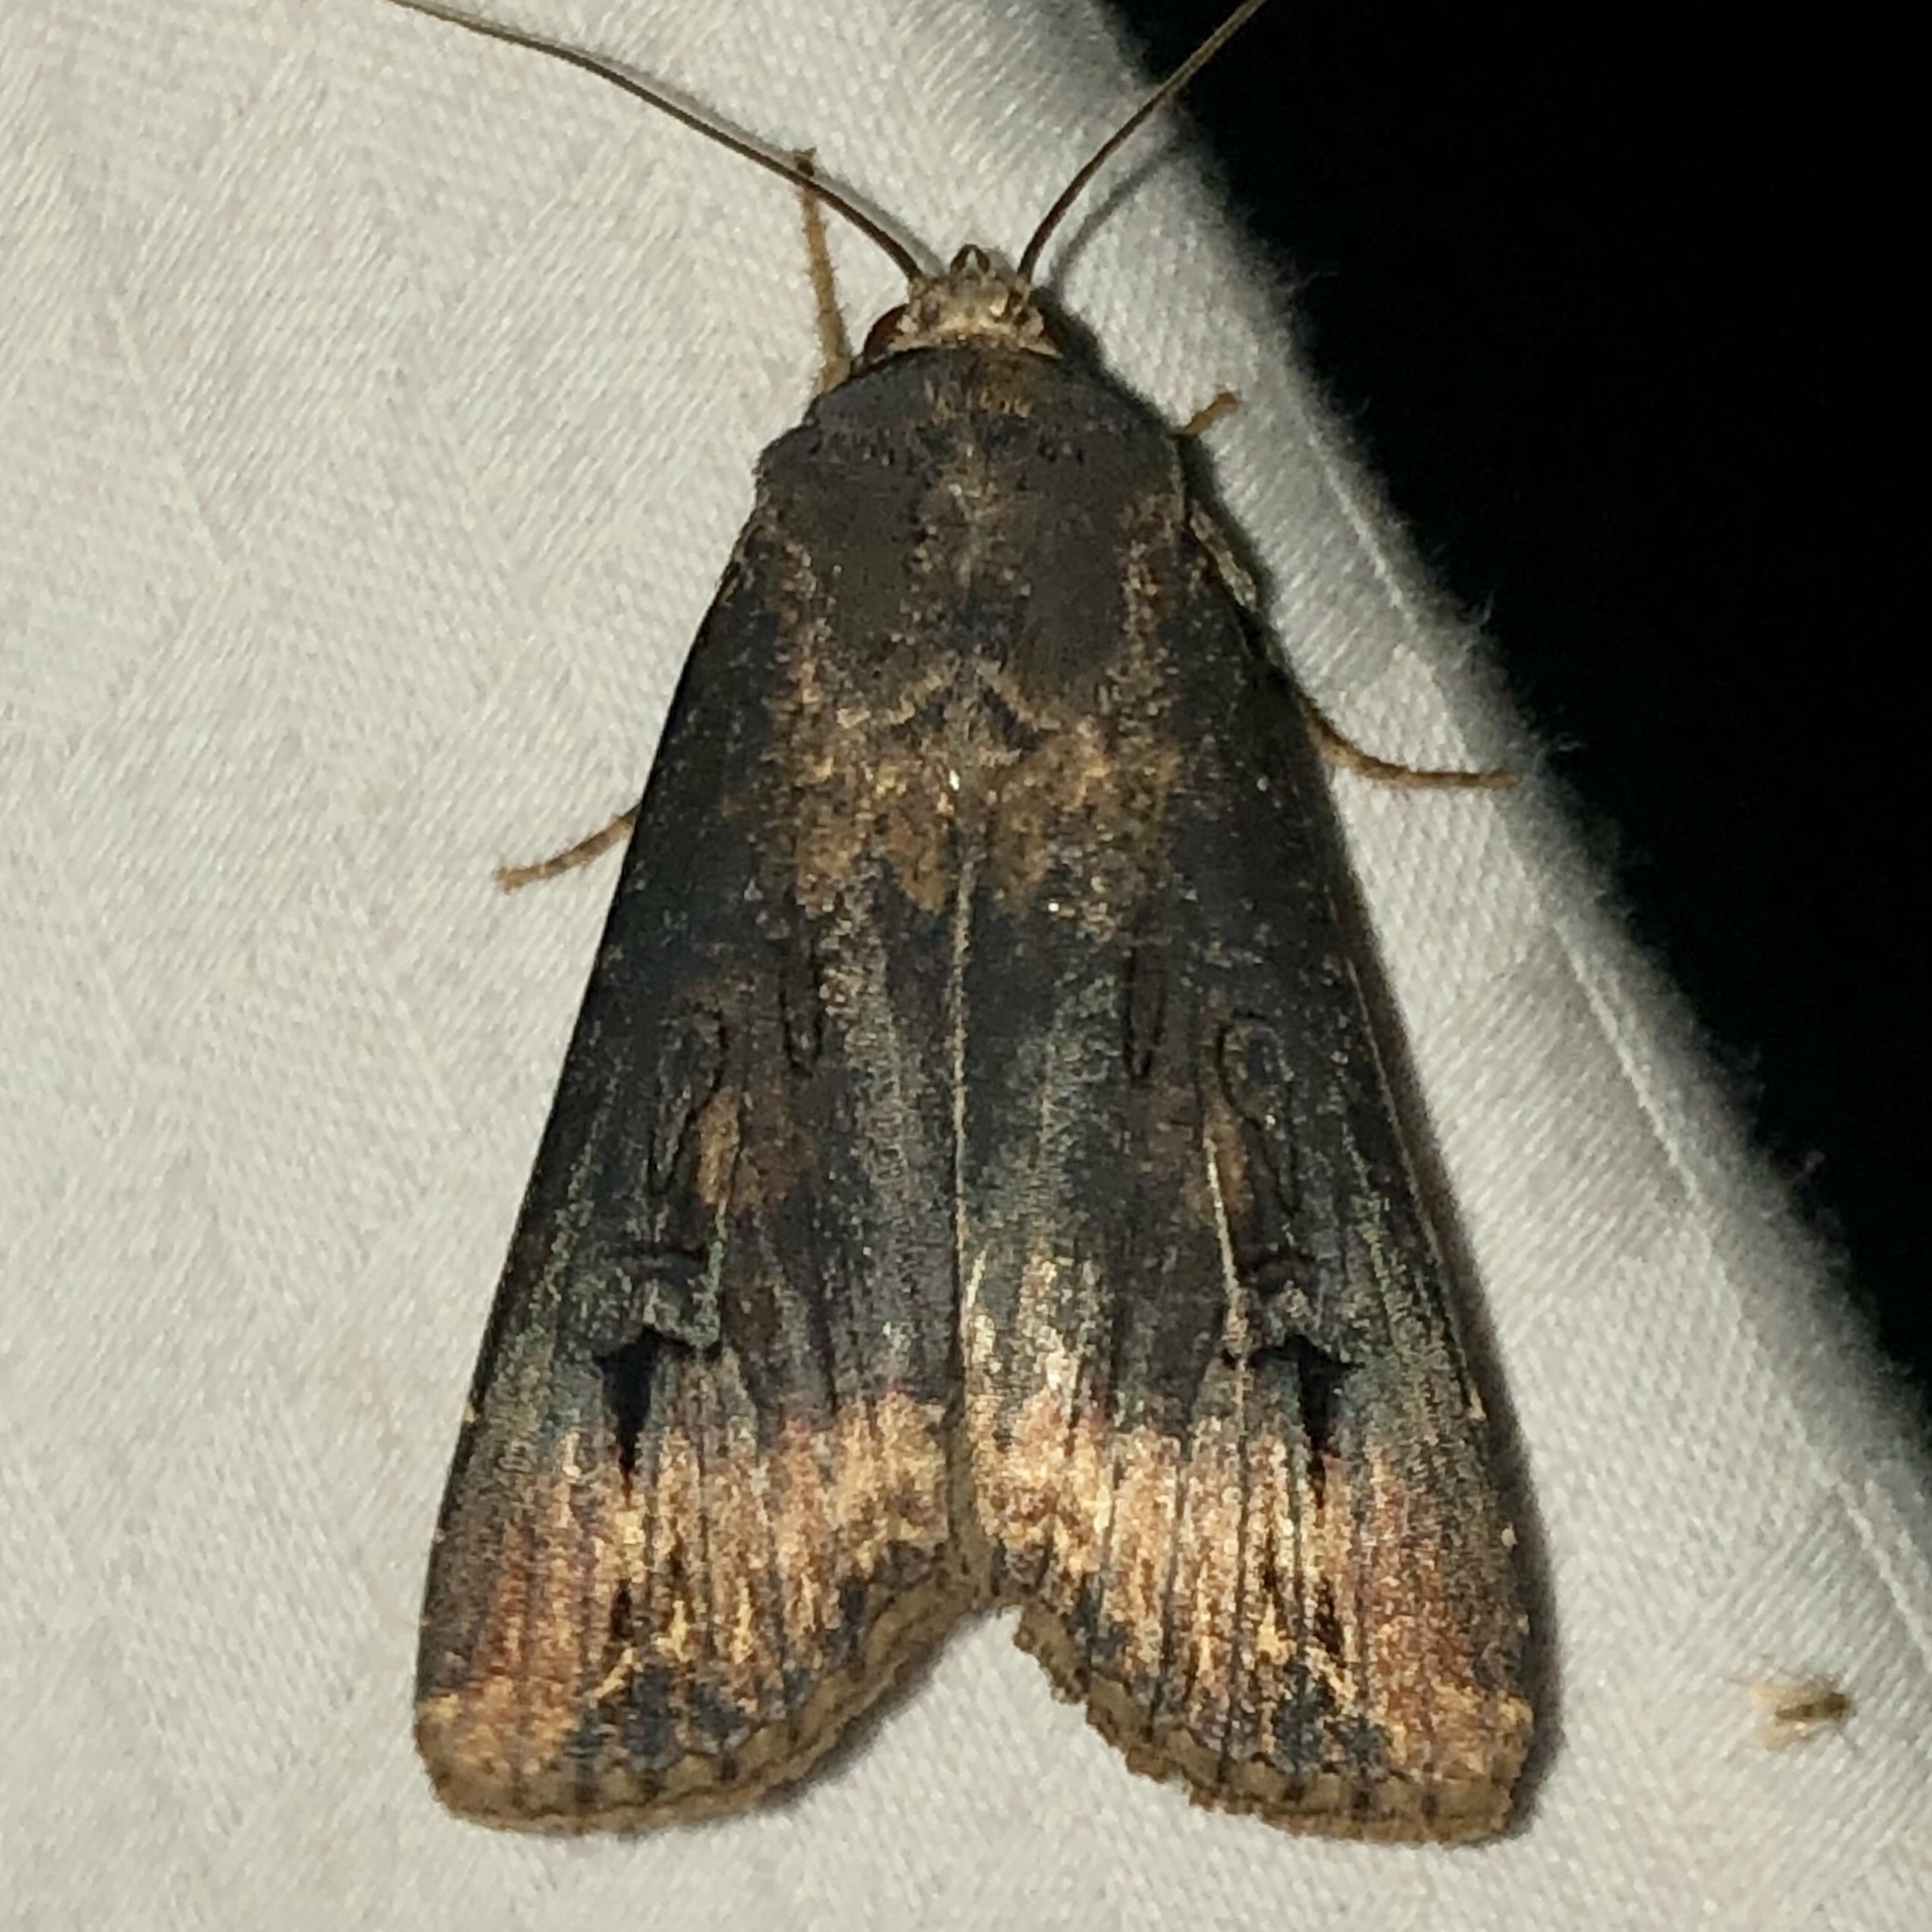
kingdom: Animalia
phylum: Arthropoda
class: Insecta
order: Lepidoptera
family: Noctuidae
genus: Agrotis
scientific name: Agrotis ipsilon
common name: Dark sword-grass
